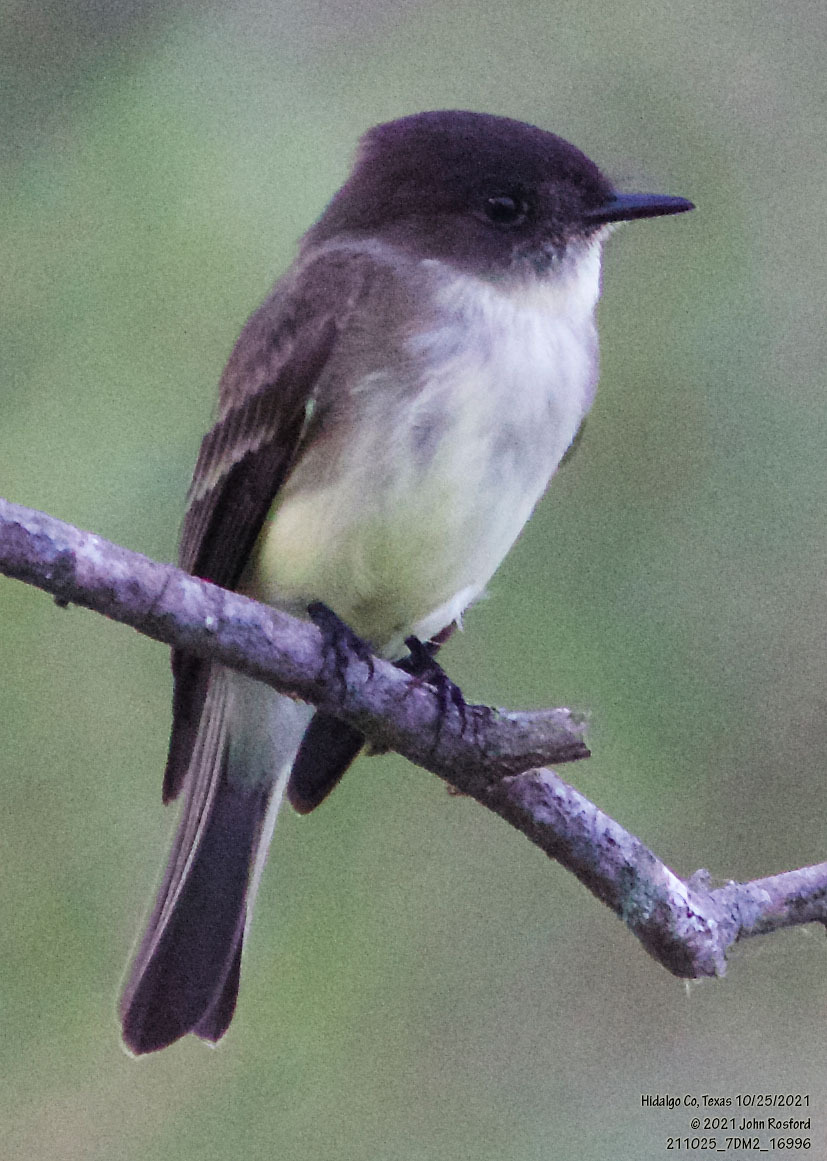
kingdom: Animalia
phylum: Chordata
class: Aves
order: Passeriformes
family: Tyrannidae
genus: Sayornis
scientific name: Sayornis phoebe
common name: Eastern phoebe
